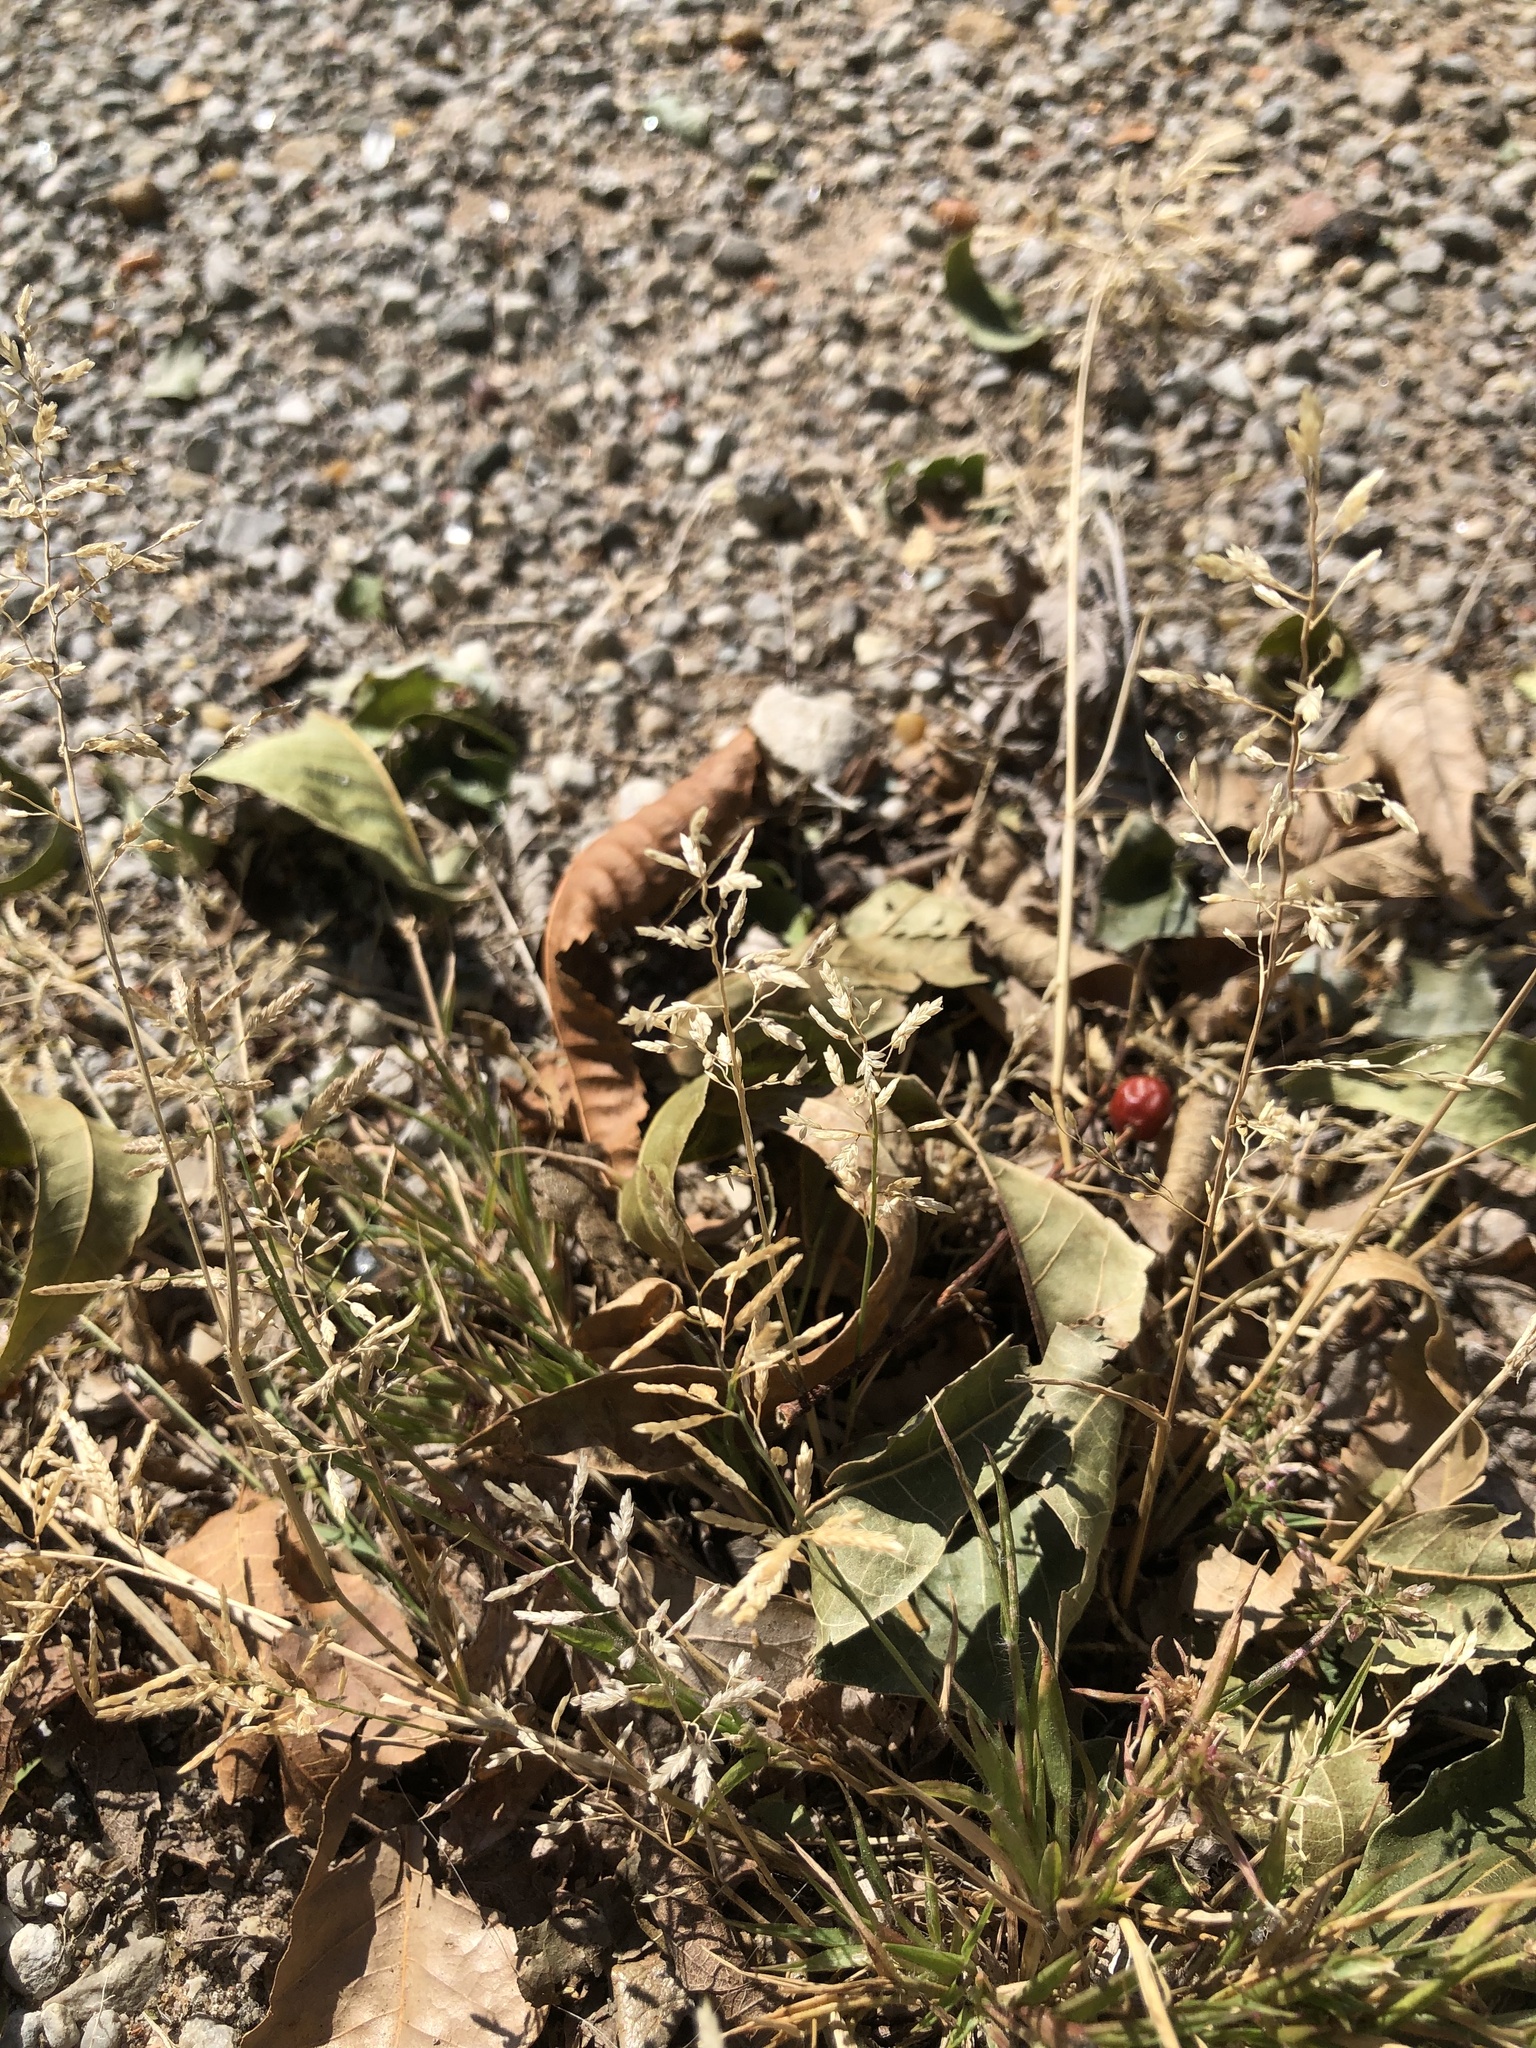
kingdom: Plantae
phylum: Tracheophyta
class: Liliopsida
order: Poales
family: Poaceae
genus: Eragrostis
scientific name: Eragrostis cilianensis
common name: Stinkgrass
